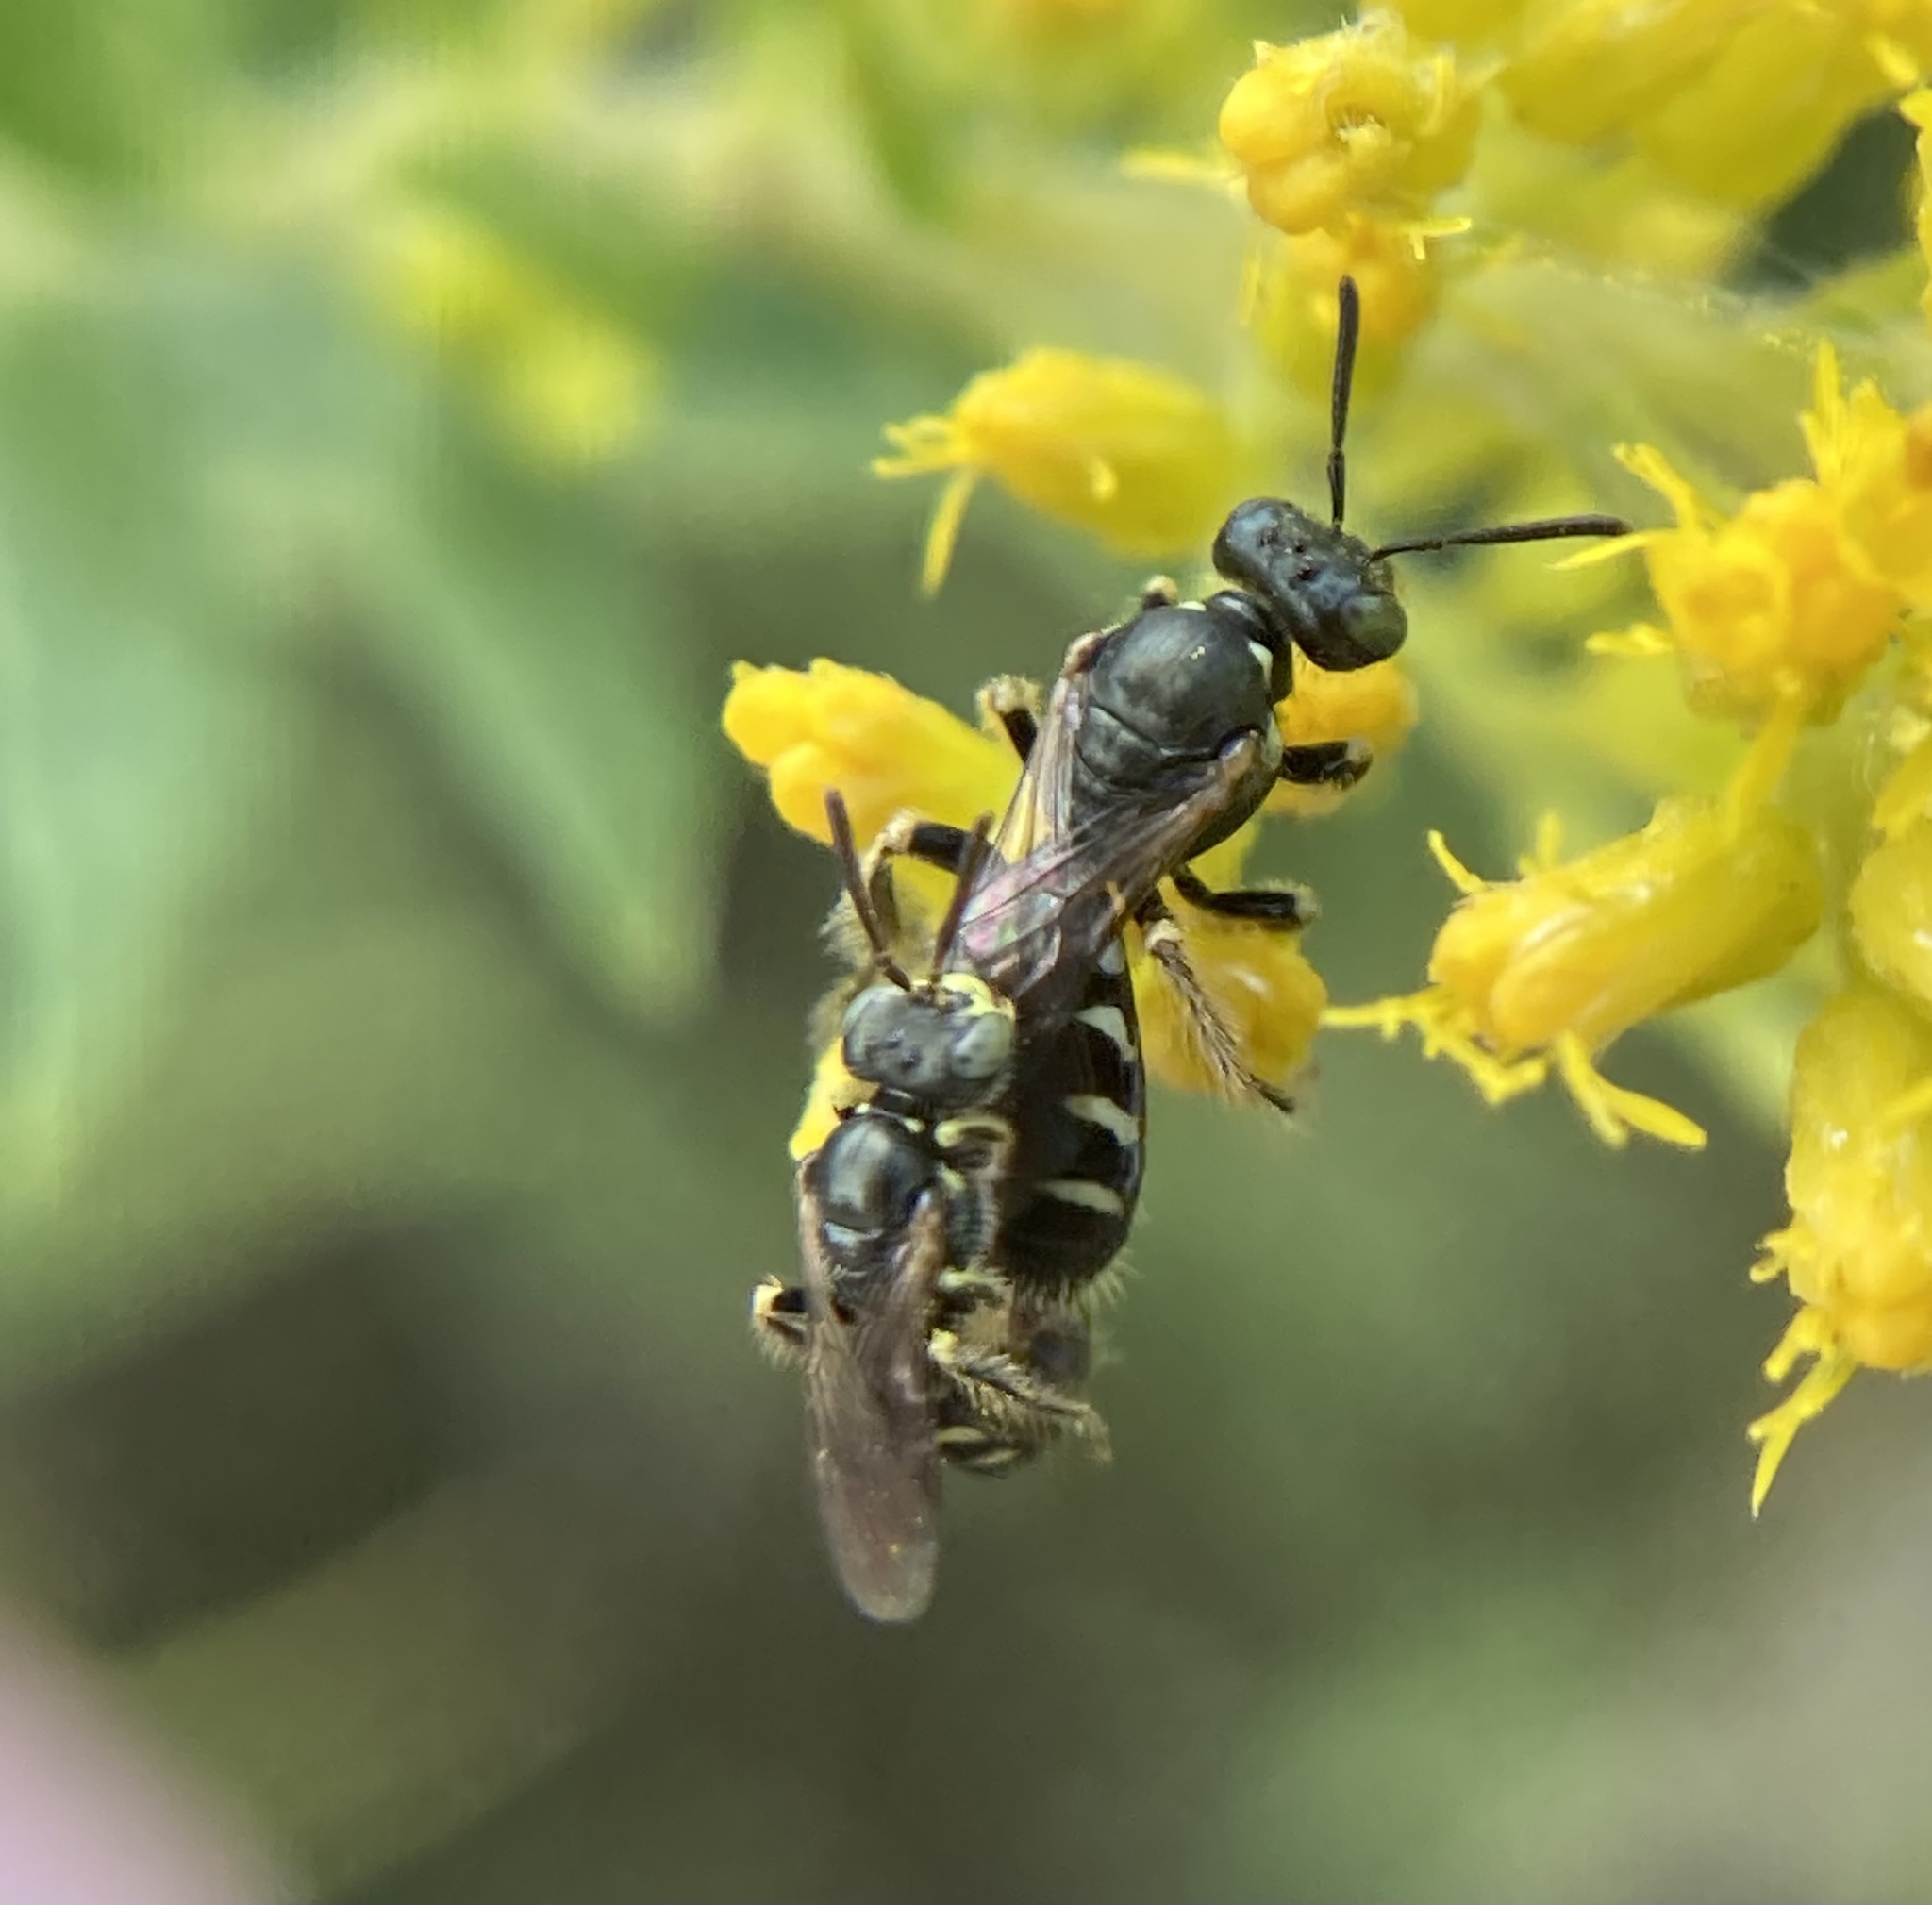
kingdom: Animalia
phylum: Arthropoda
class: Insecta
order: Hymenoptera
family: Andrenidae
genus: Perdita
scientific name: Perdita octomaculata
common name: Eight-spotted miner bee
